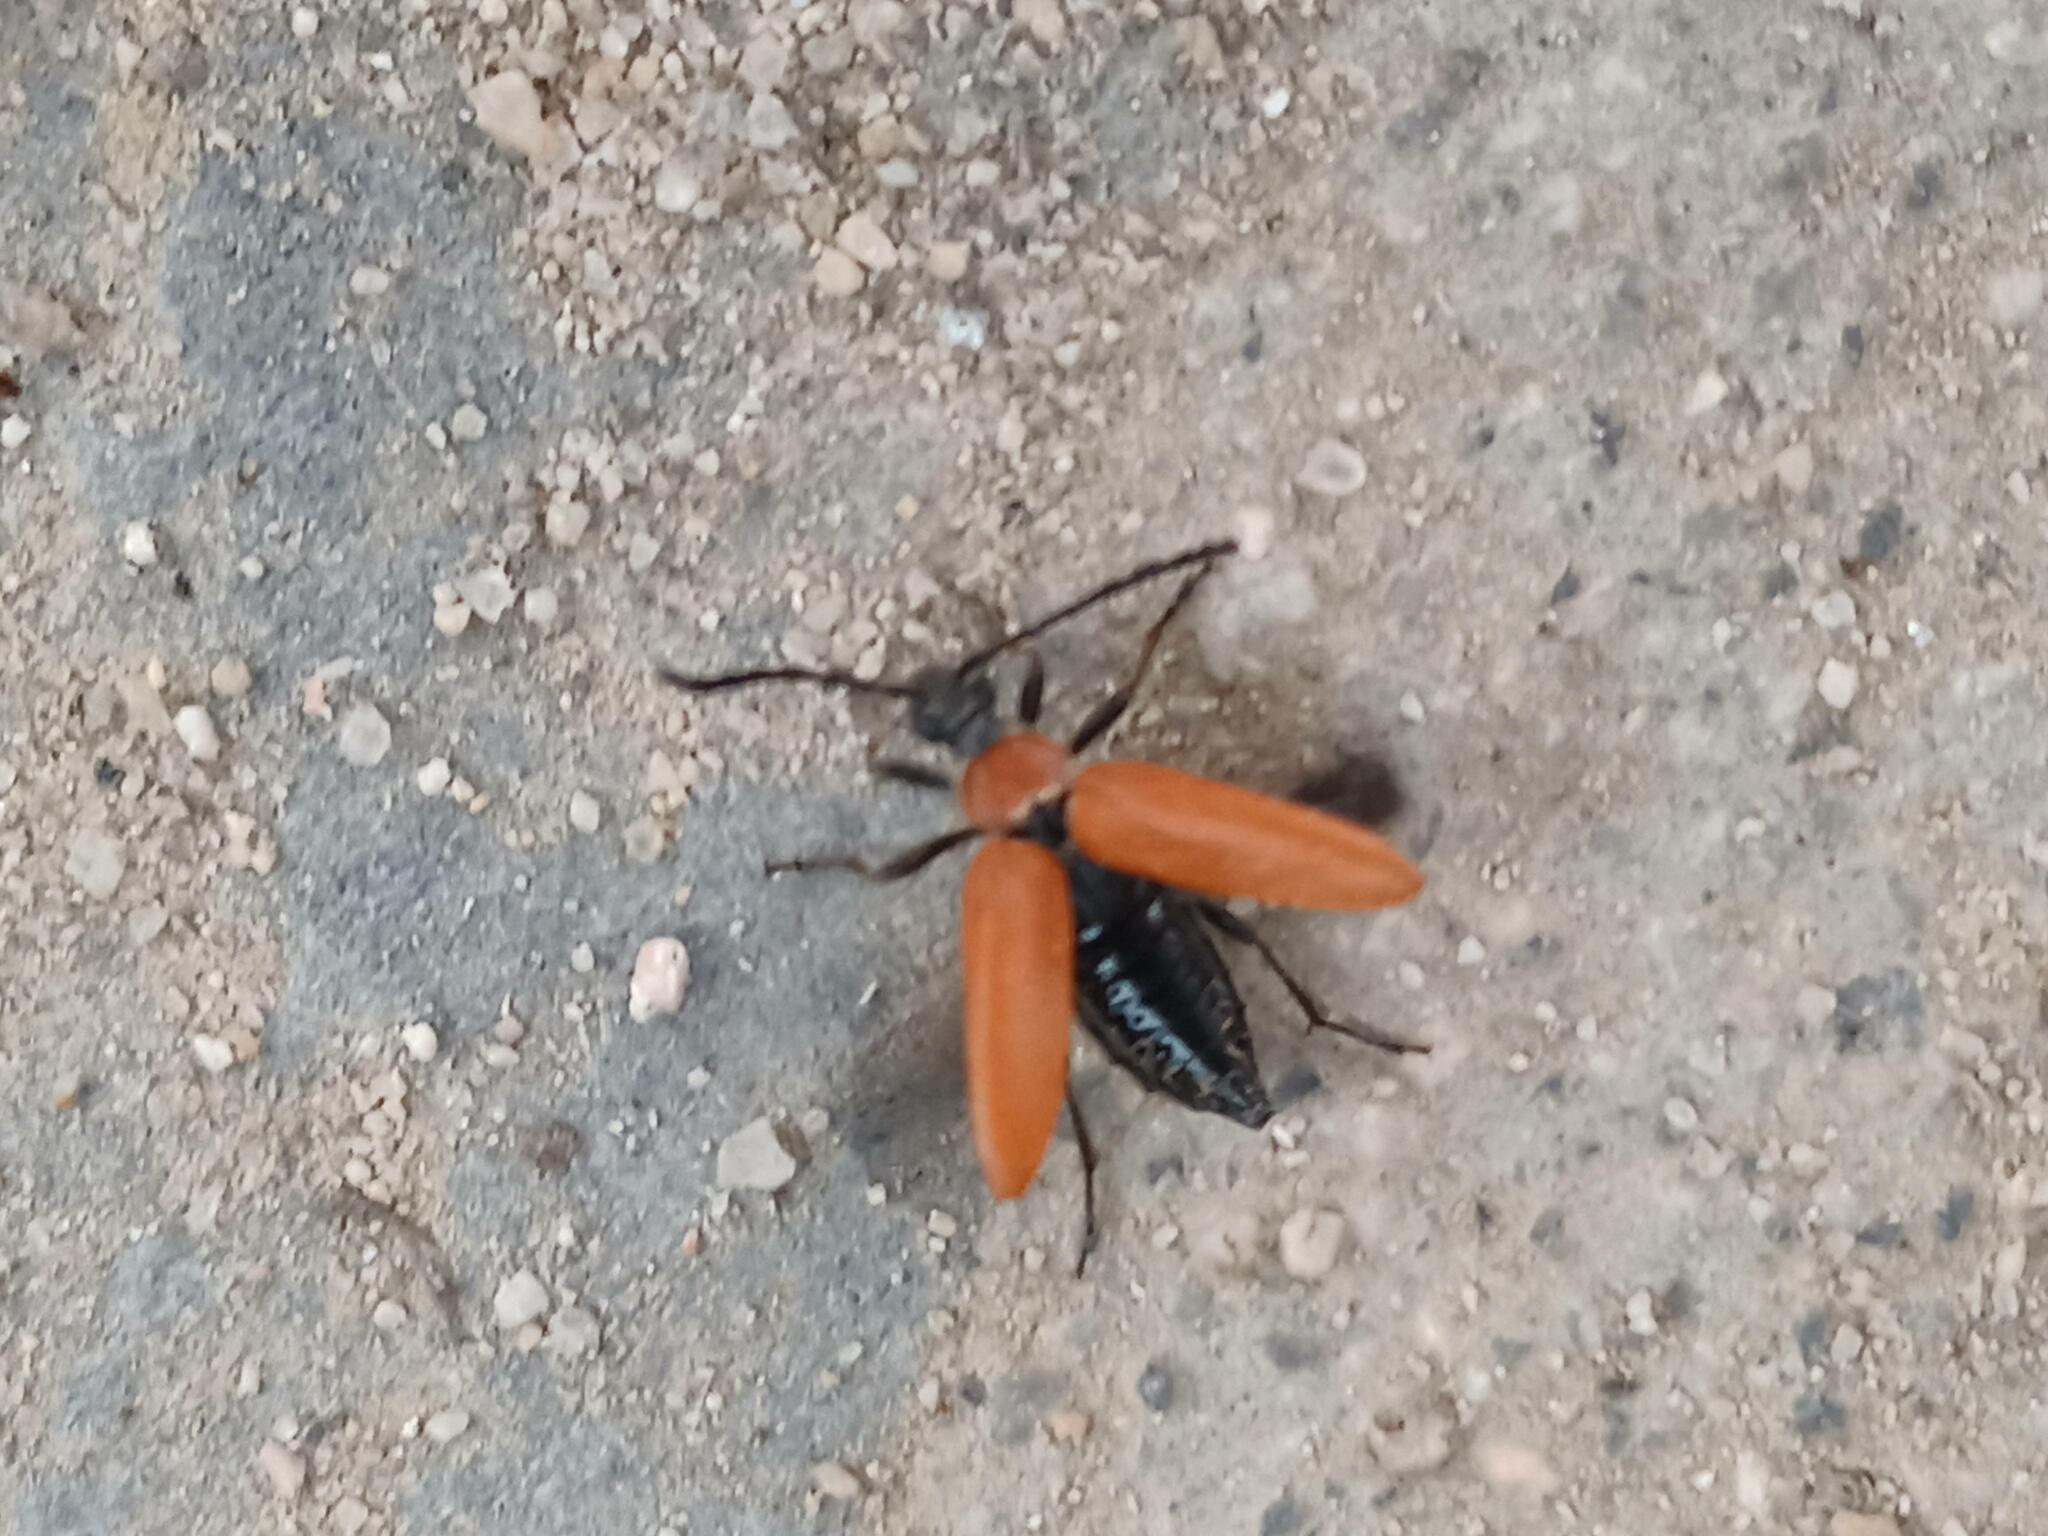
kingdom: Animalia
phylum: Arthropoda
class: Insecta
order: Coleoptera
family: Cerambycidae
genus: Stictoleptura
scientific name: Stictoleptura rubra
